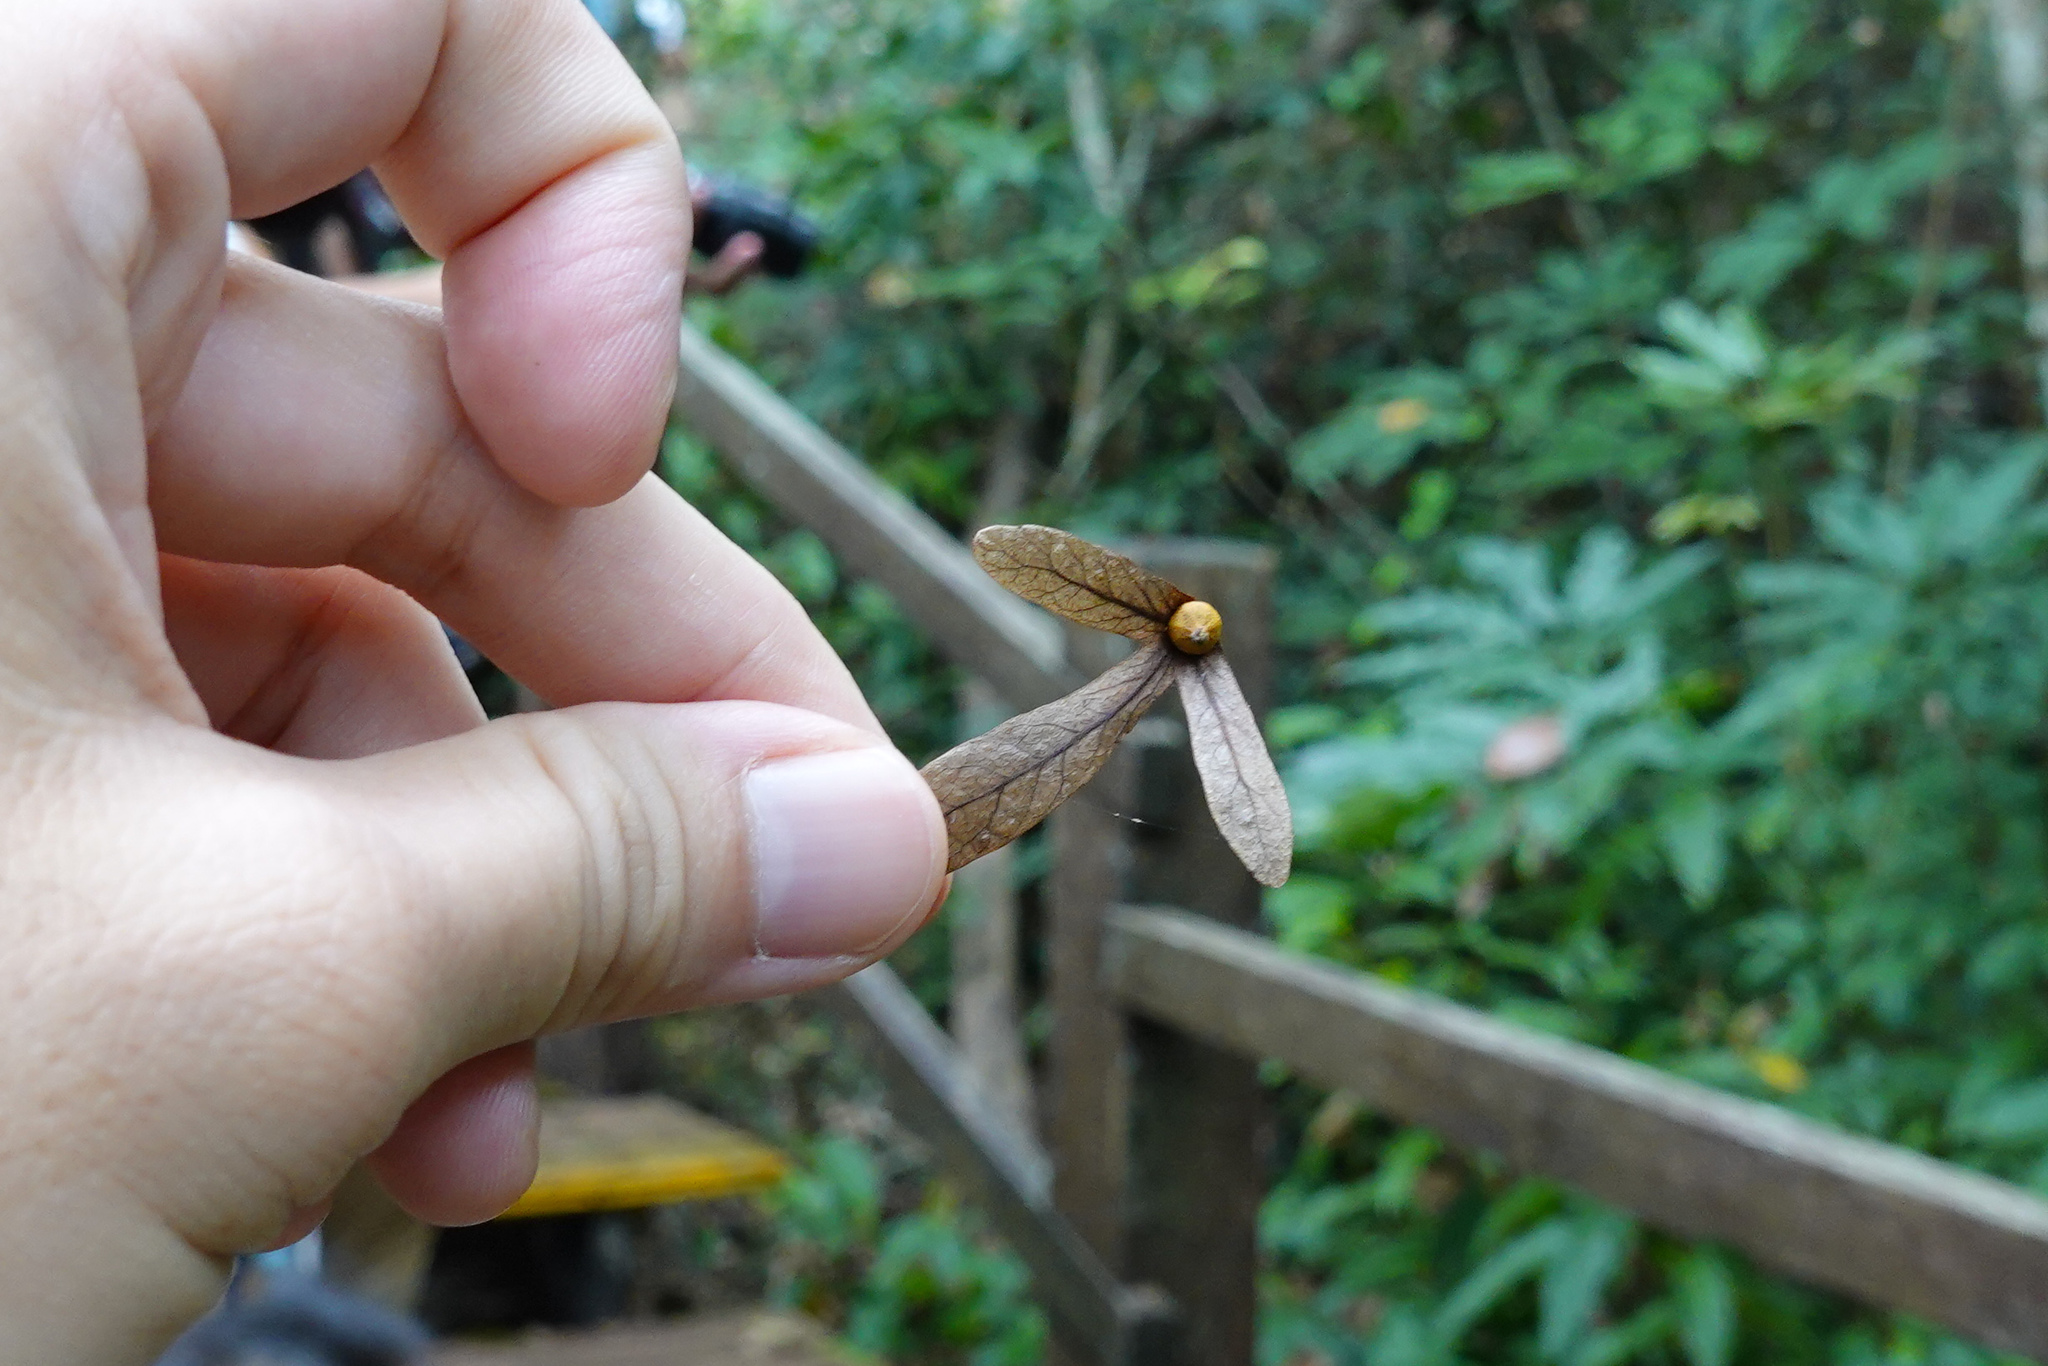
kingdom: Plantae
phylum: Tracheophyta
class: Magnoliopsida
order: Fagales
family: Juglandaceae
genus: Engelhardia
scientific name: Engelhardia roxburghiana
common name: Golden malay beam
